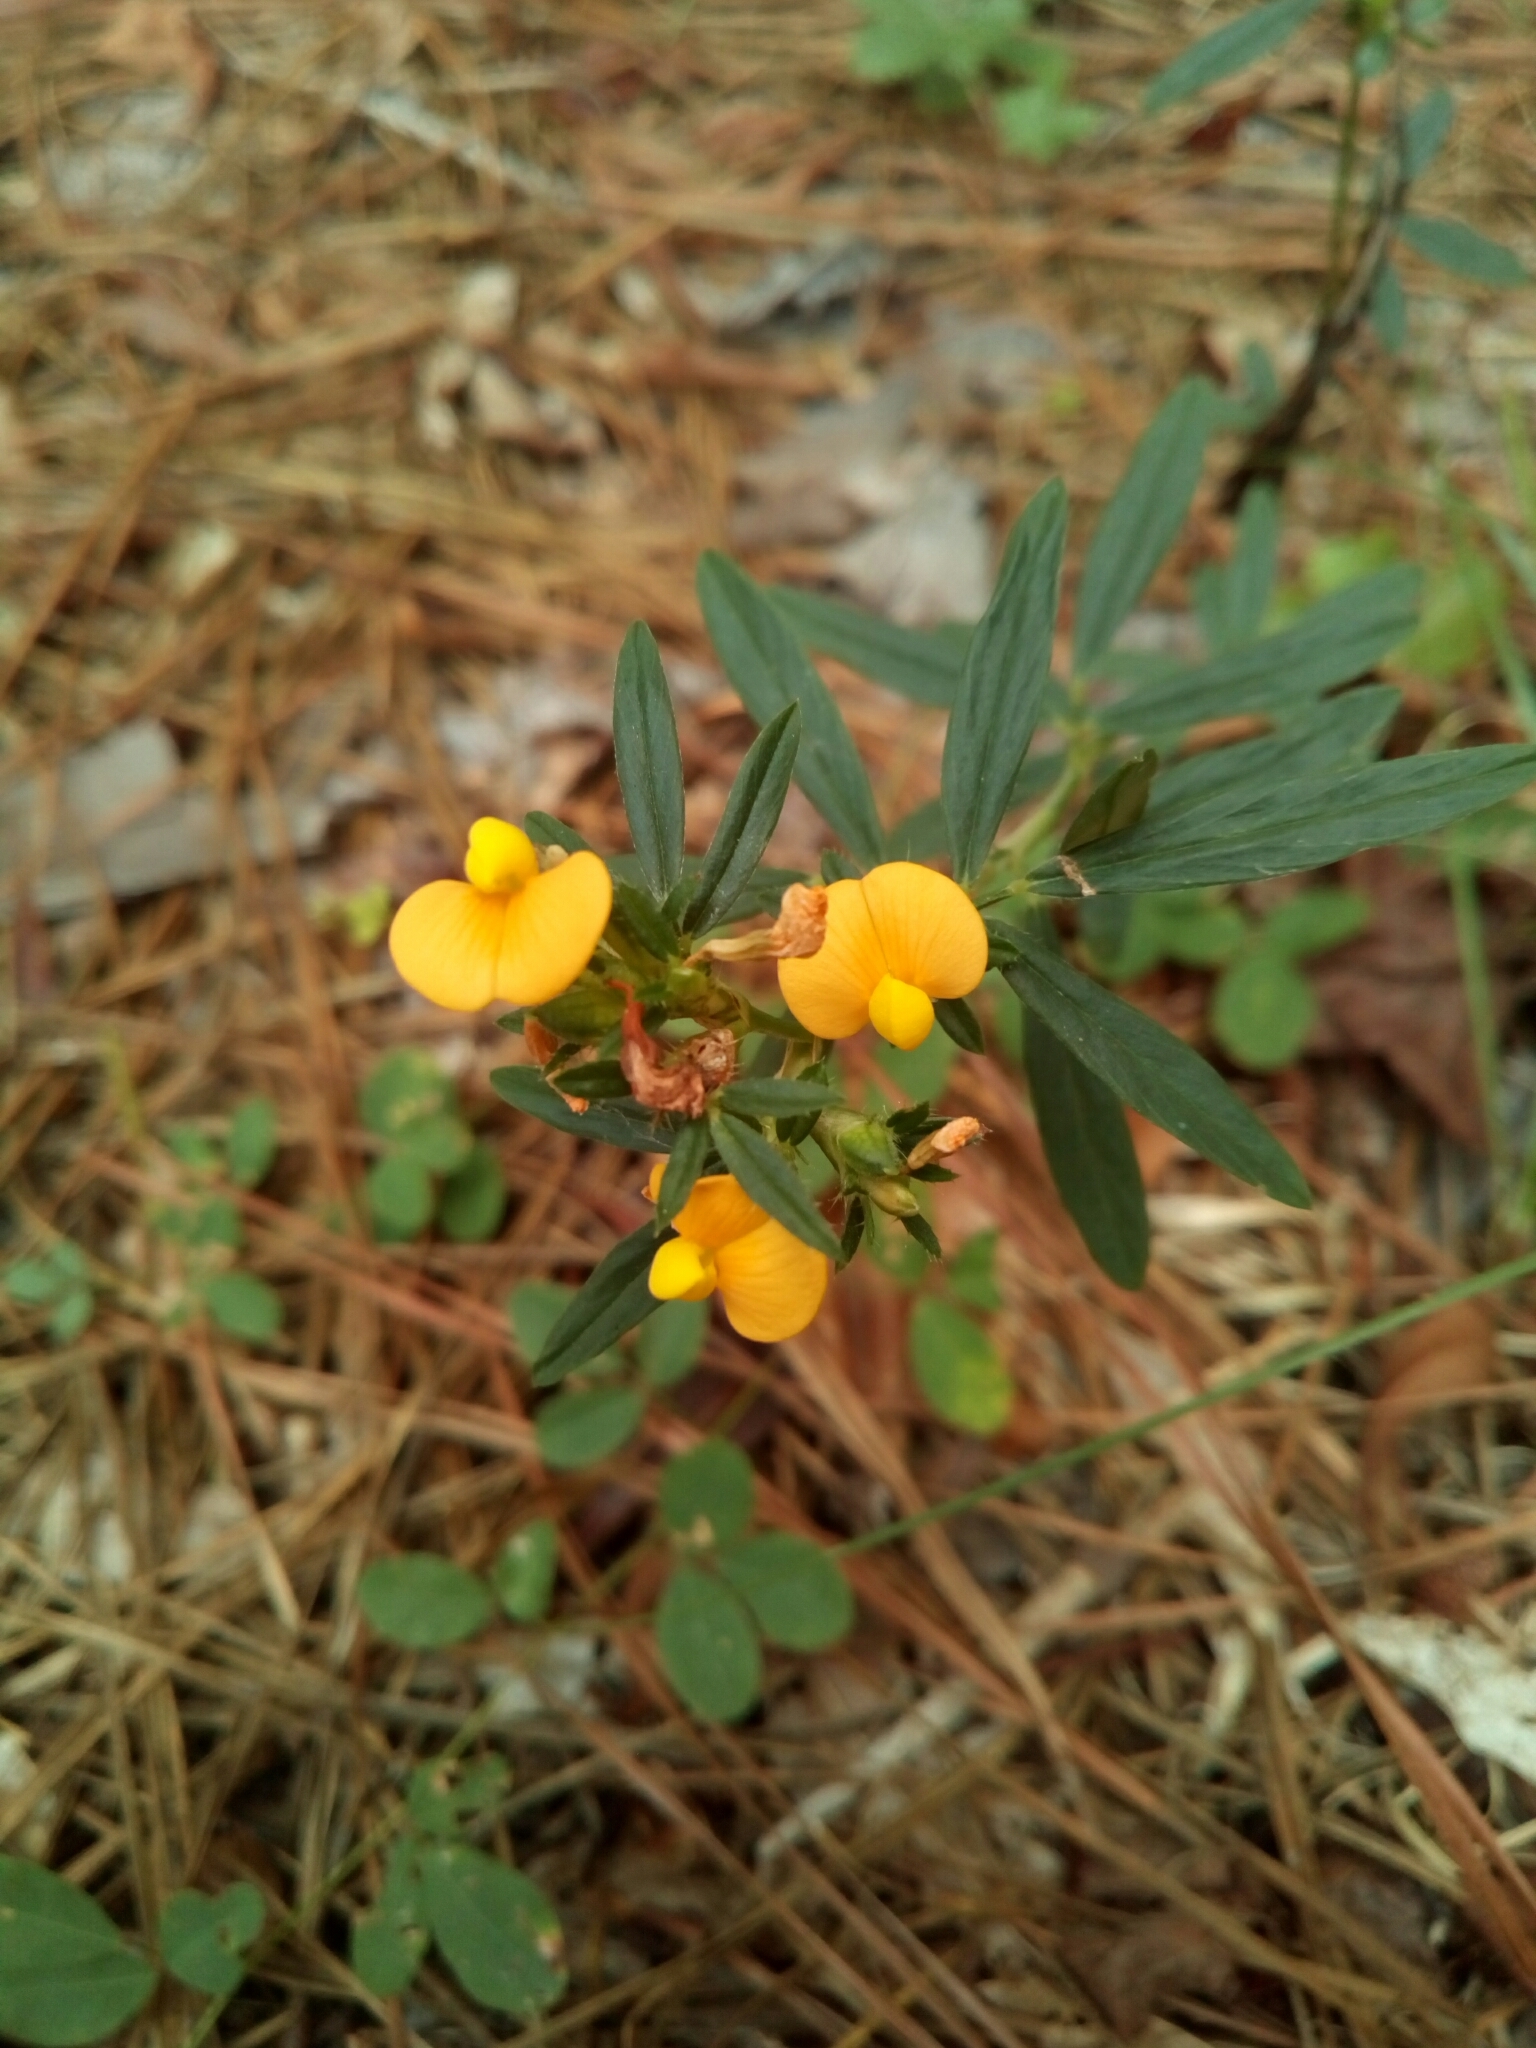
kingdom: Plantae
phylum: Tracheophyta
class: Magnoliopsida
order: Fabales
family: Fabaceae
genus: Stylosanthes
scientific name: Stylosanthes biflora
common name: Two-flower pencil-flower
